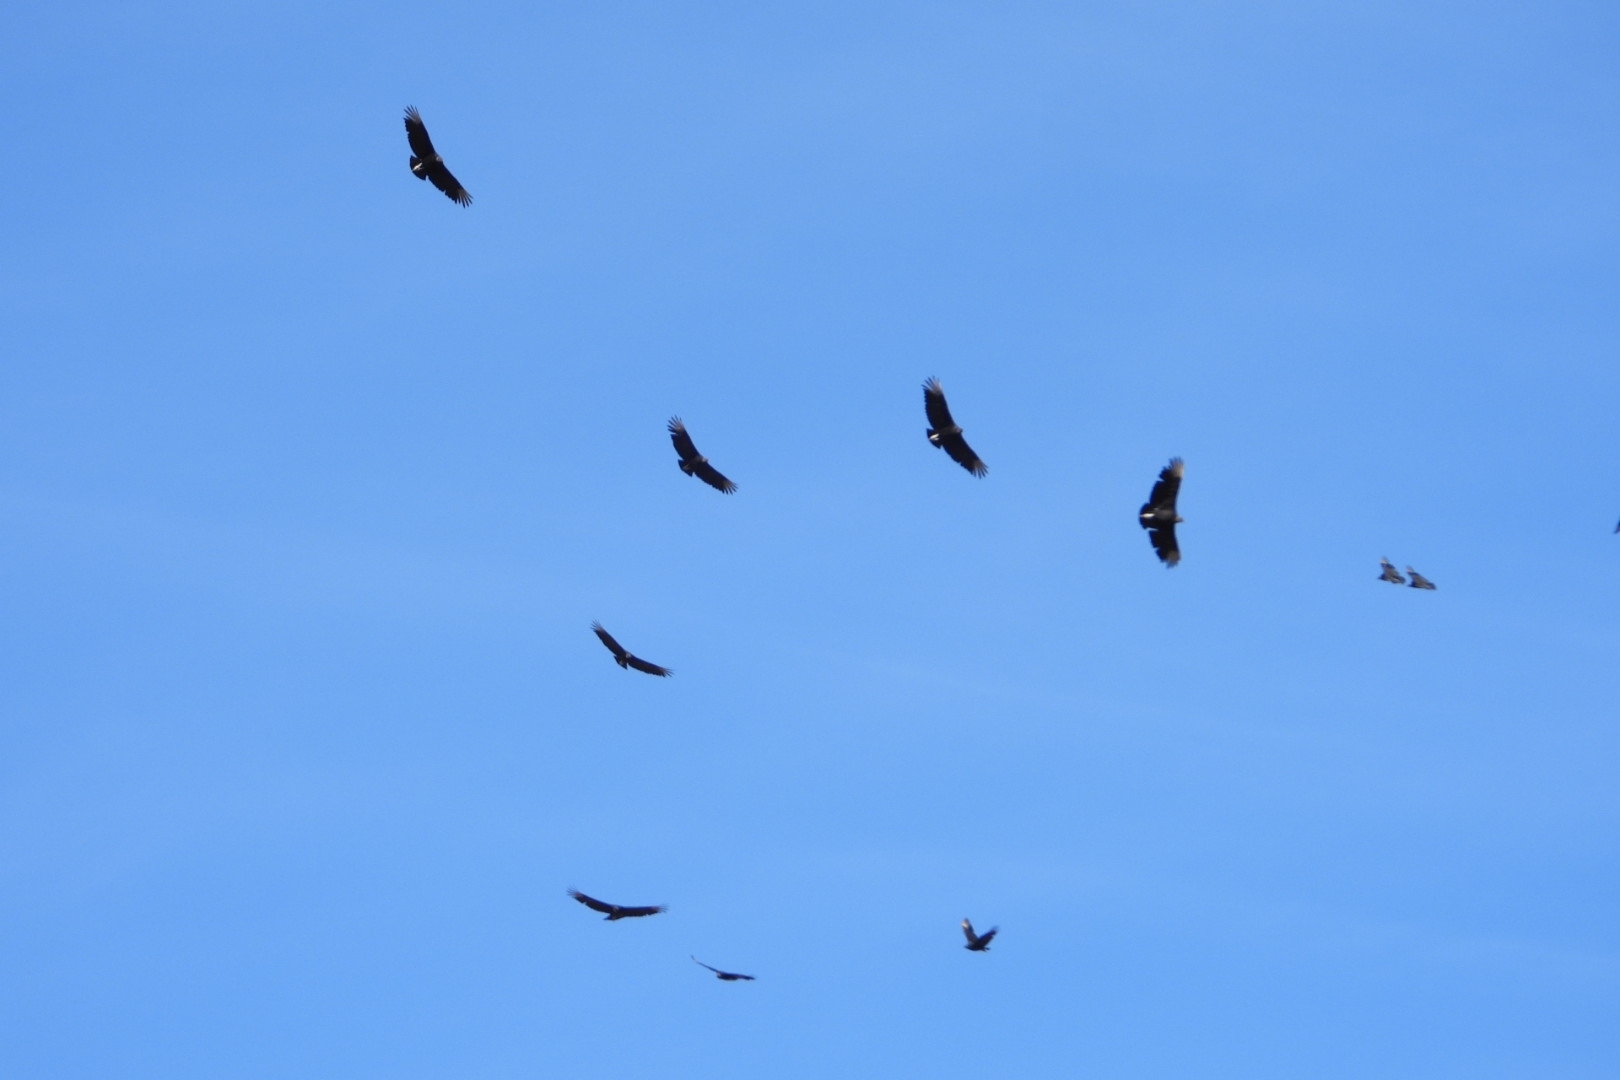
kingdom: Animalia
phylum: Chordata
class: Aves
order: Accipitriformes
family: Cathartidae
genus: Coragyps
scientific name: Coragyps atratus
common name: Black vulture
